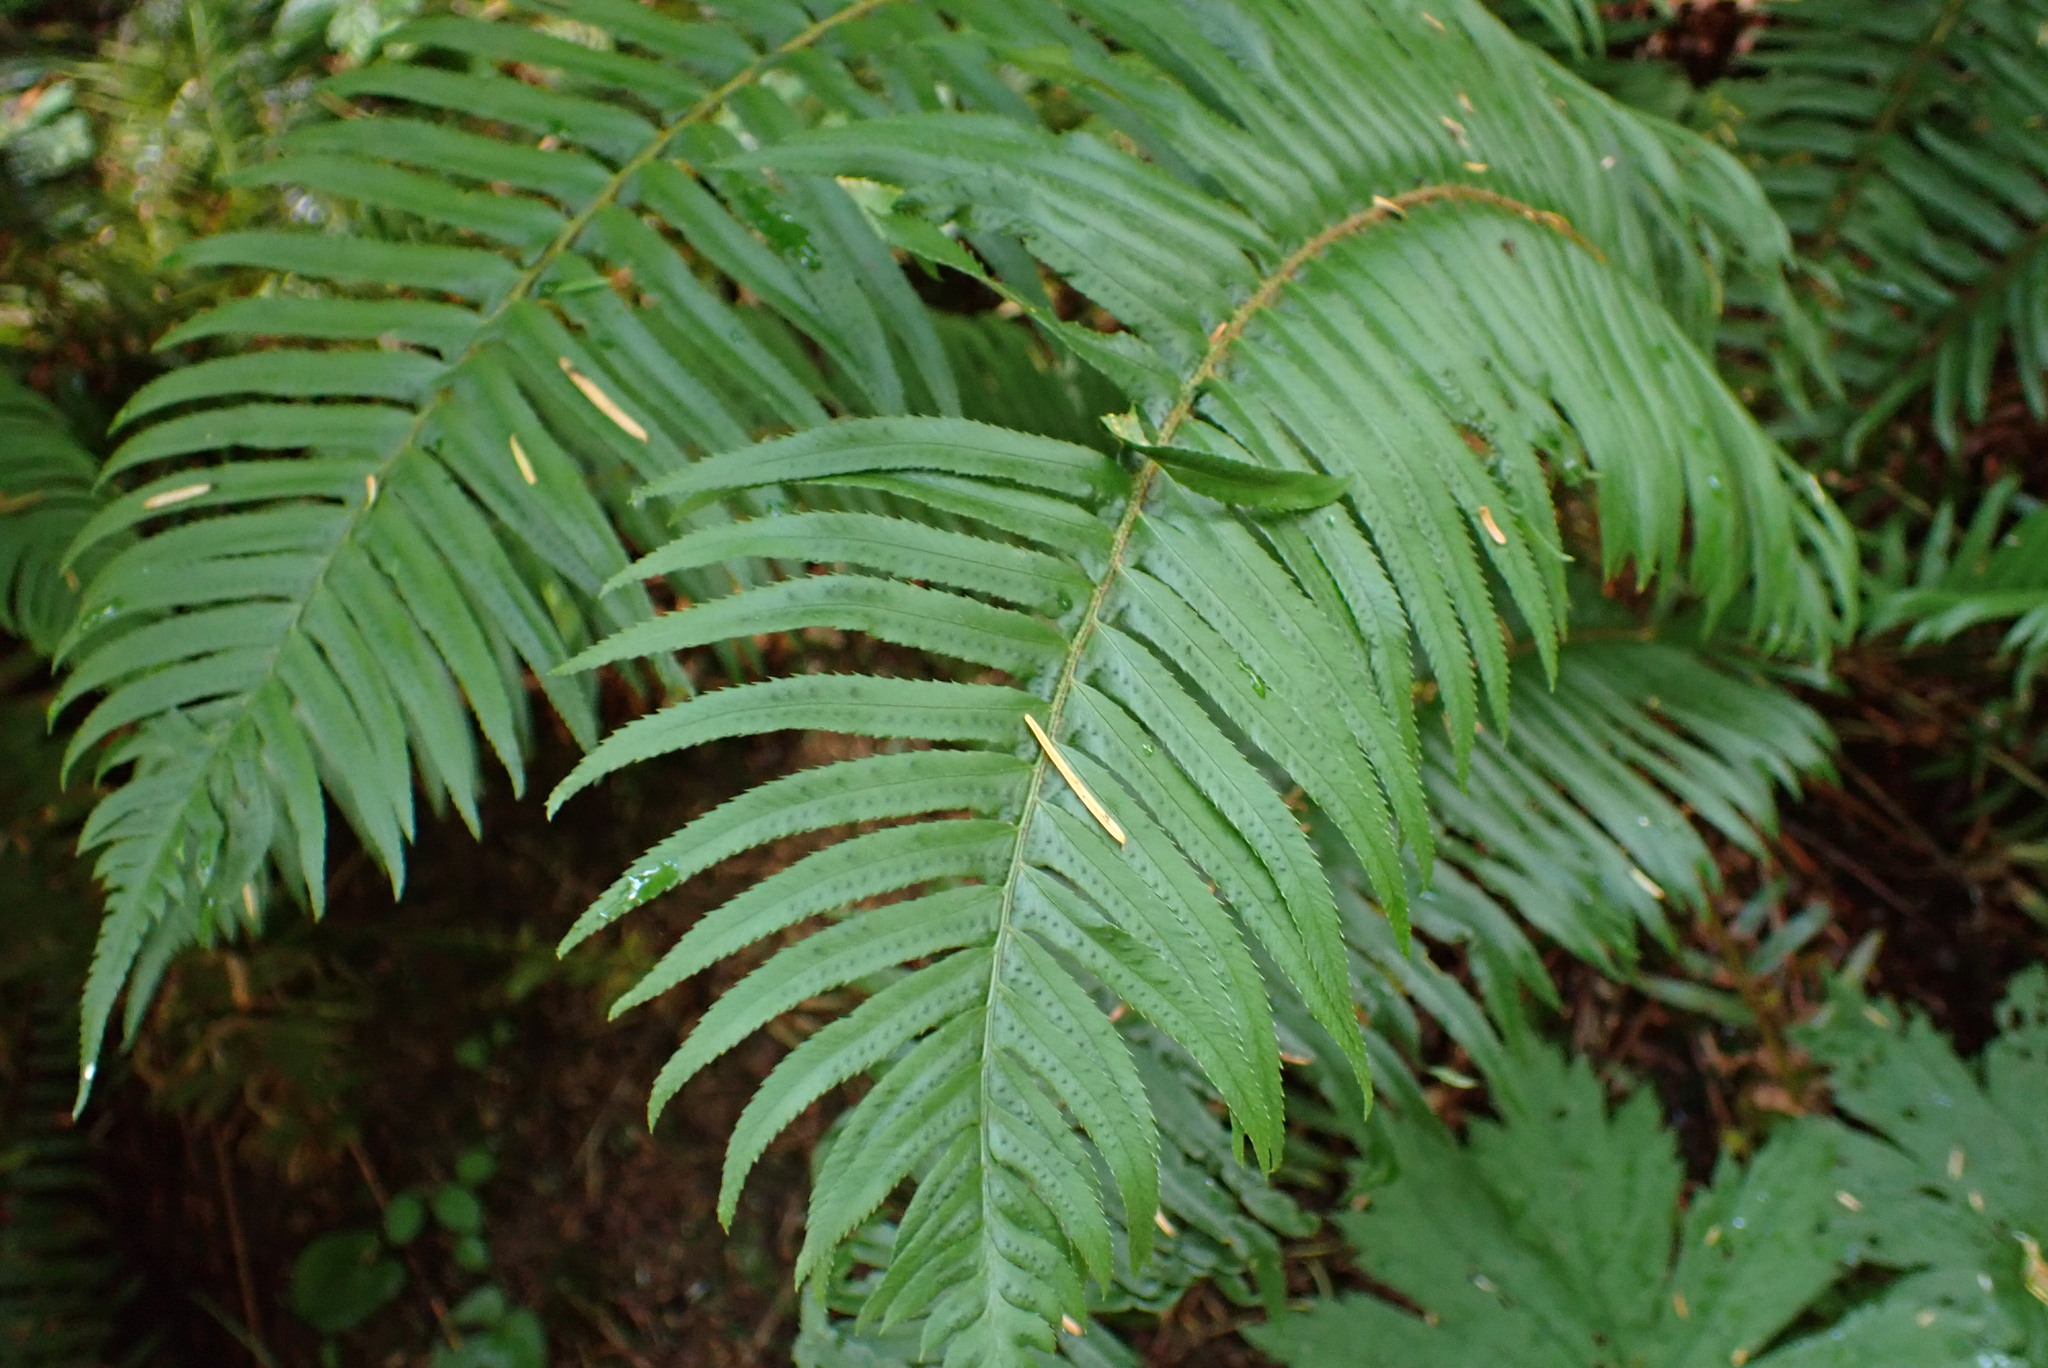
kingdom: Plantae
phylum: Tracheophyta
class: Polypodiopsida
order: Polypodiales
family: Dryopteridaceae
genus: Polystichum
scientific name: Polystichum munitum
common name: Western sword-fern
